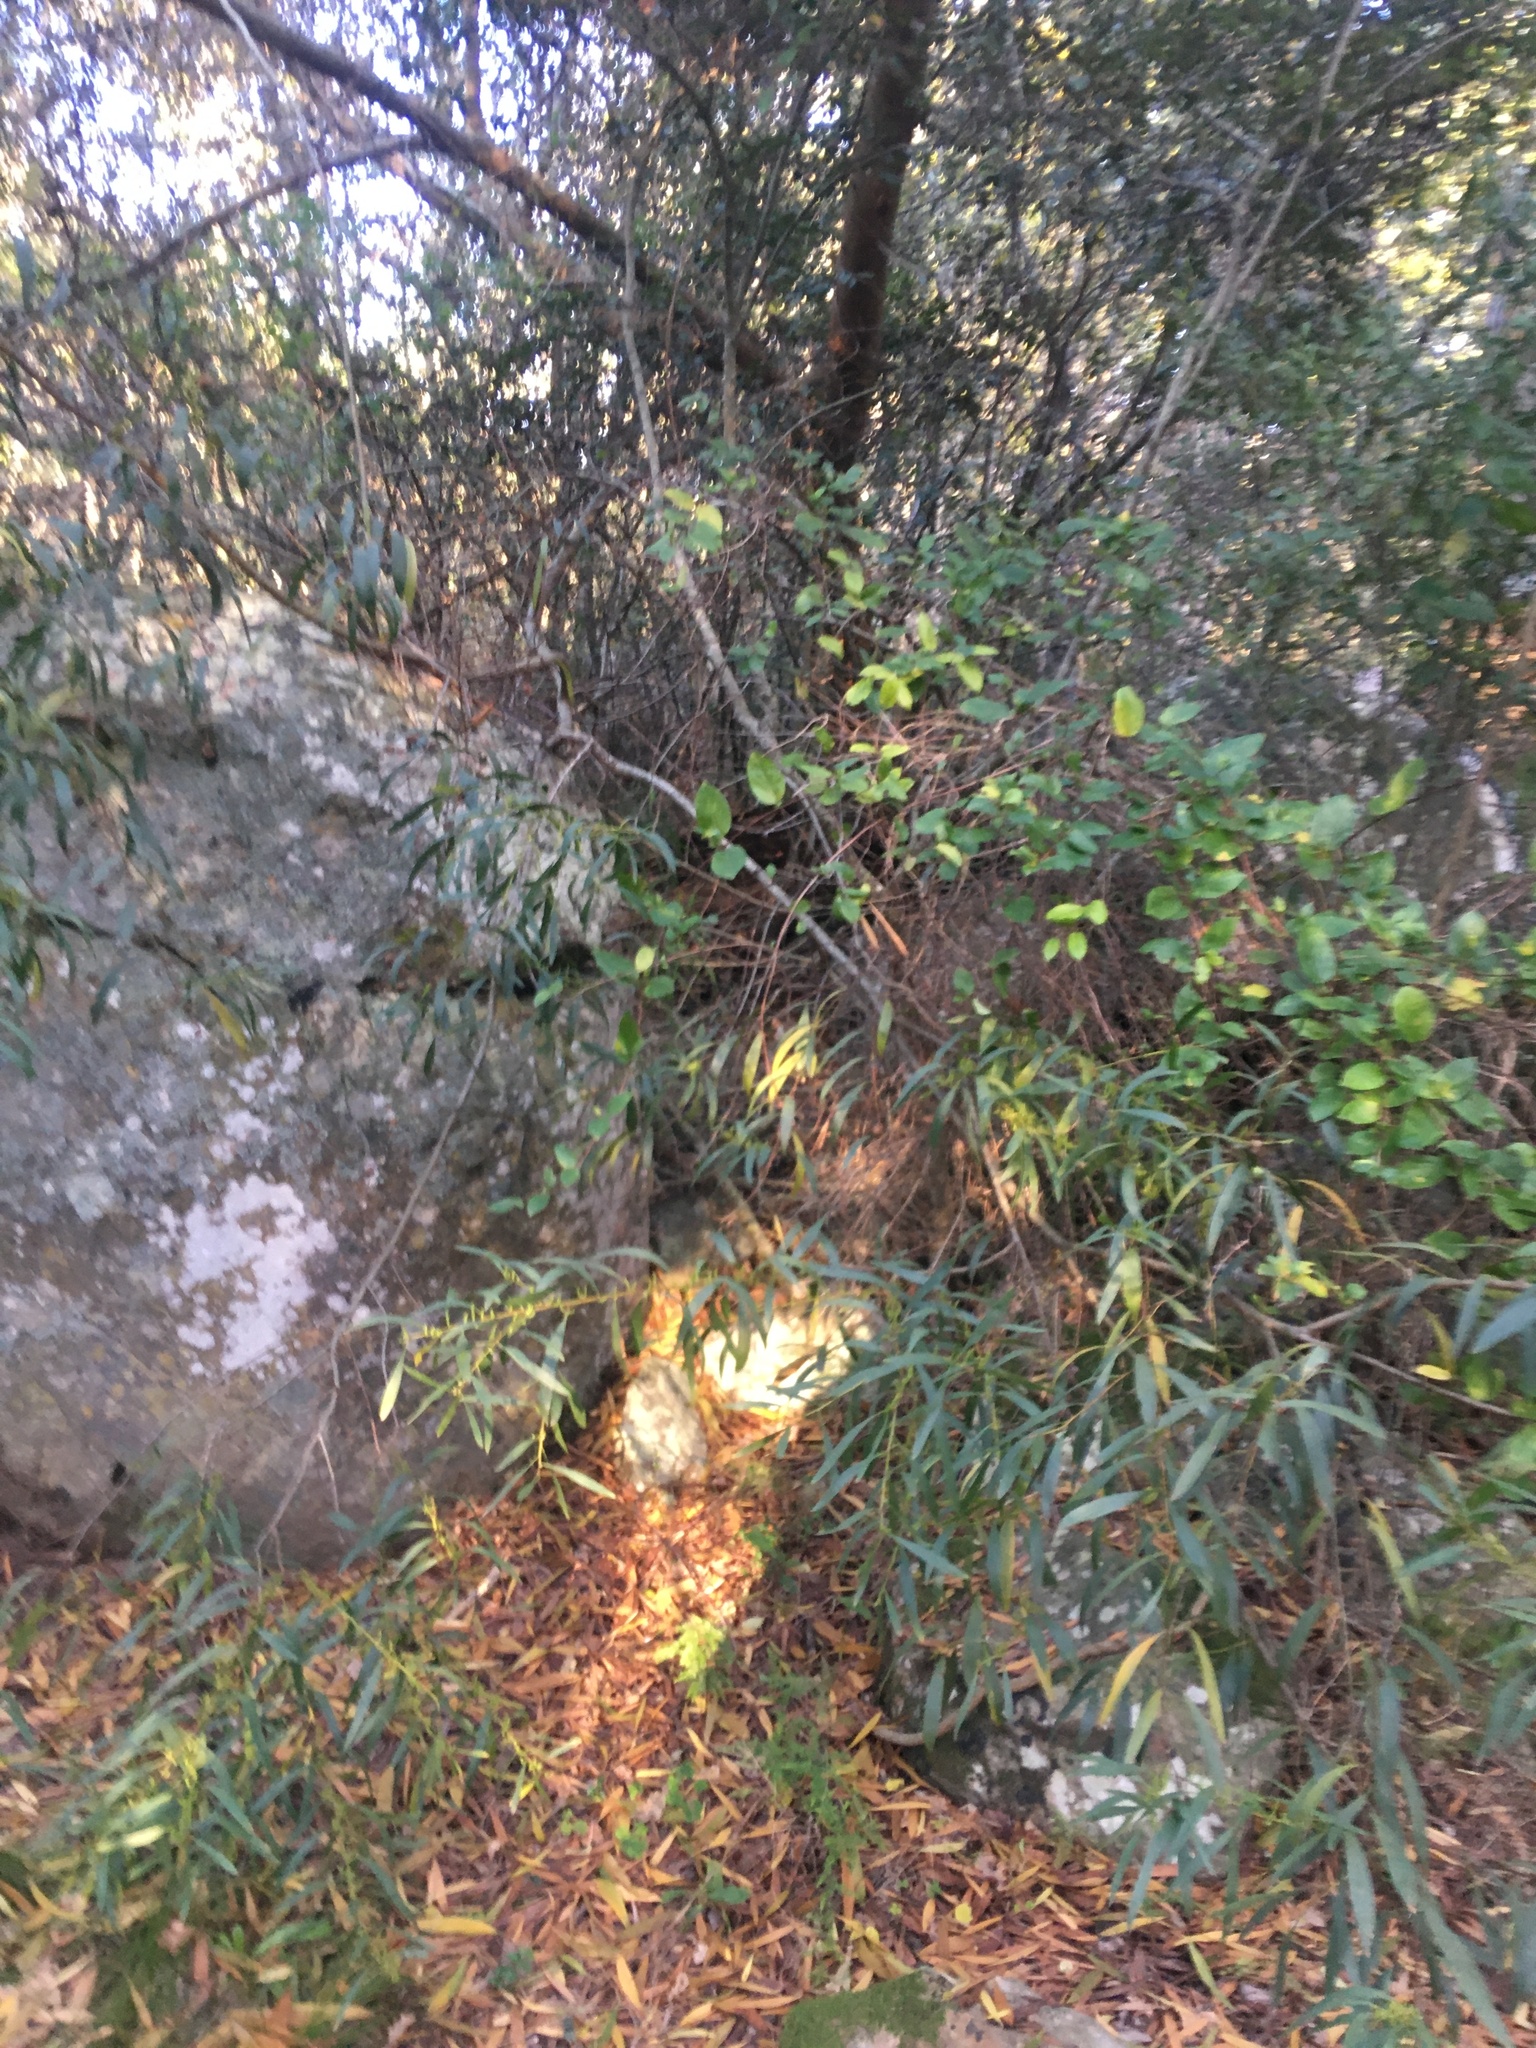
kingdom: Plantae
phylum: Tracheophyta
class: Magnoliopsida
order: Fabales
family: Fabaceae
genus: Acacia
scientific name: Acacia longifolia
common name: Sydney golden wattle
